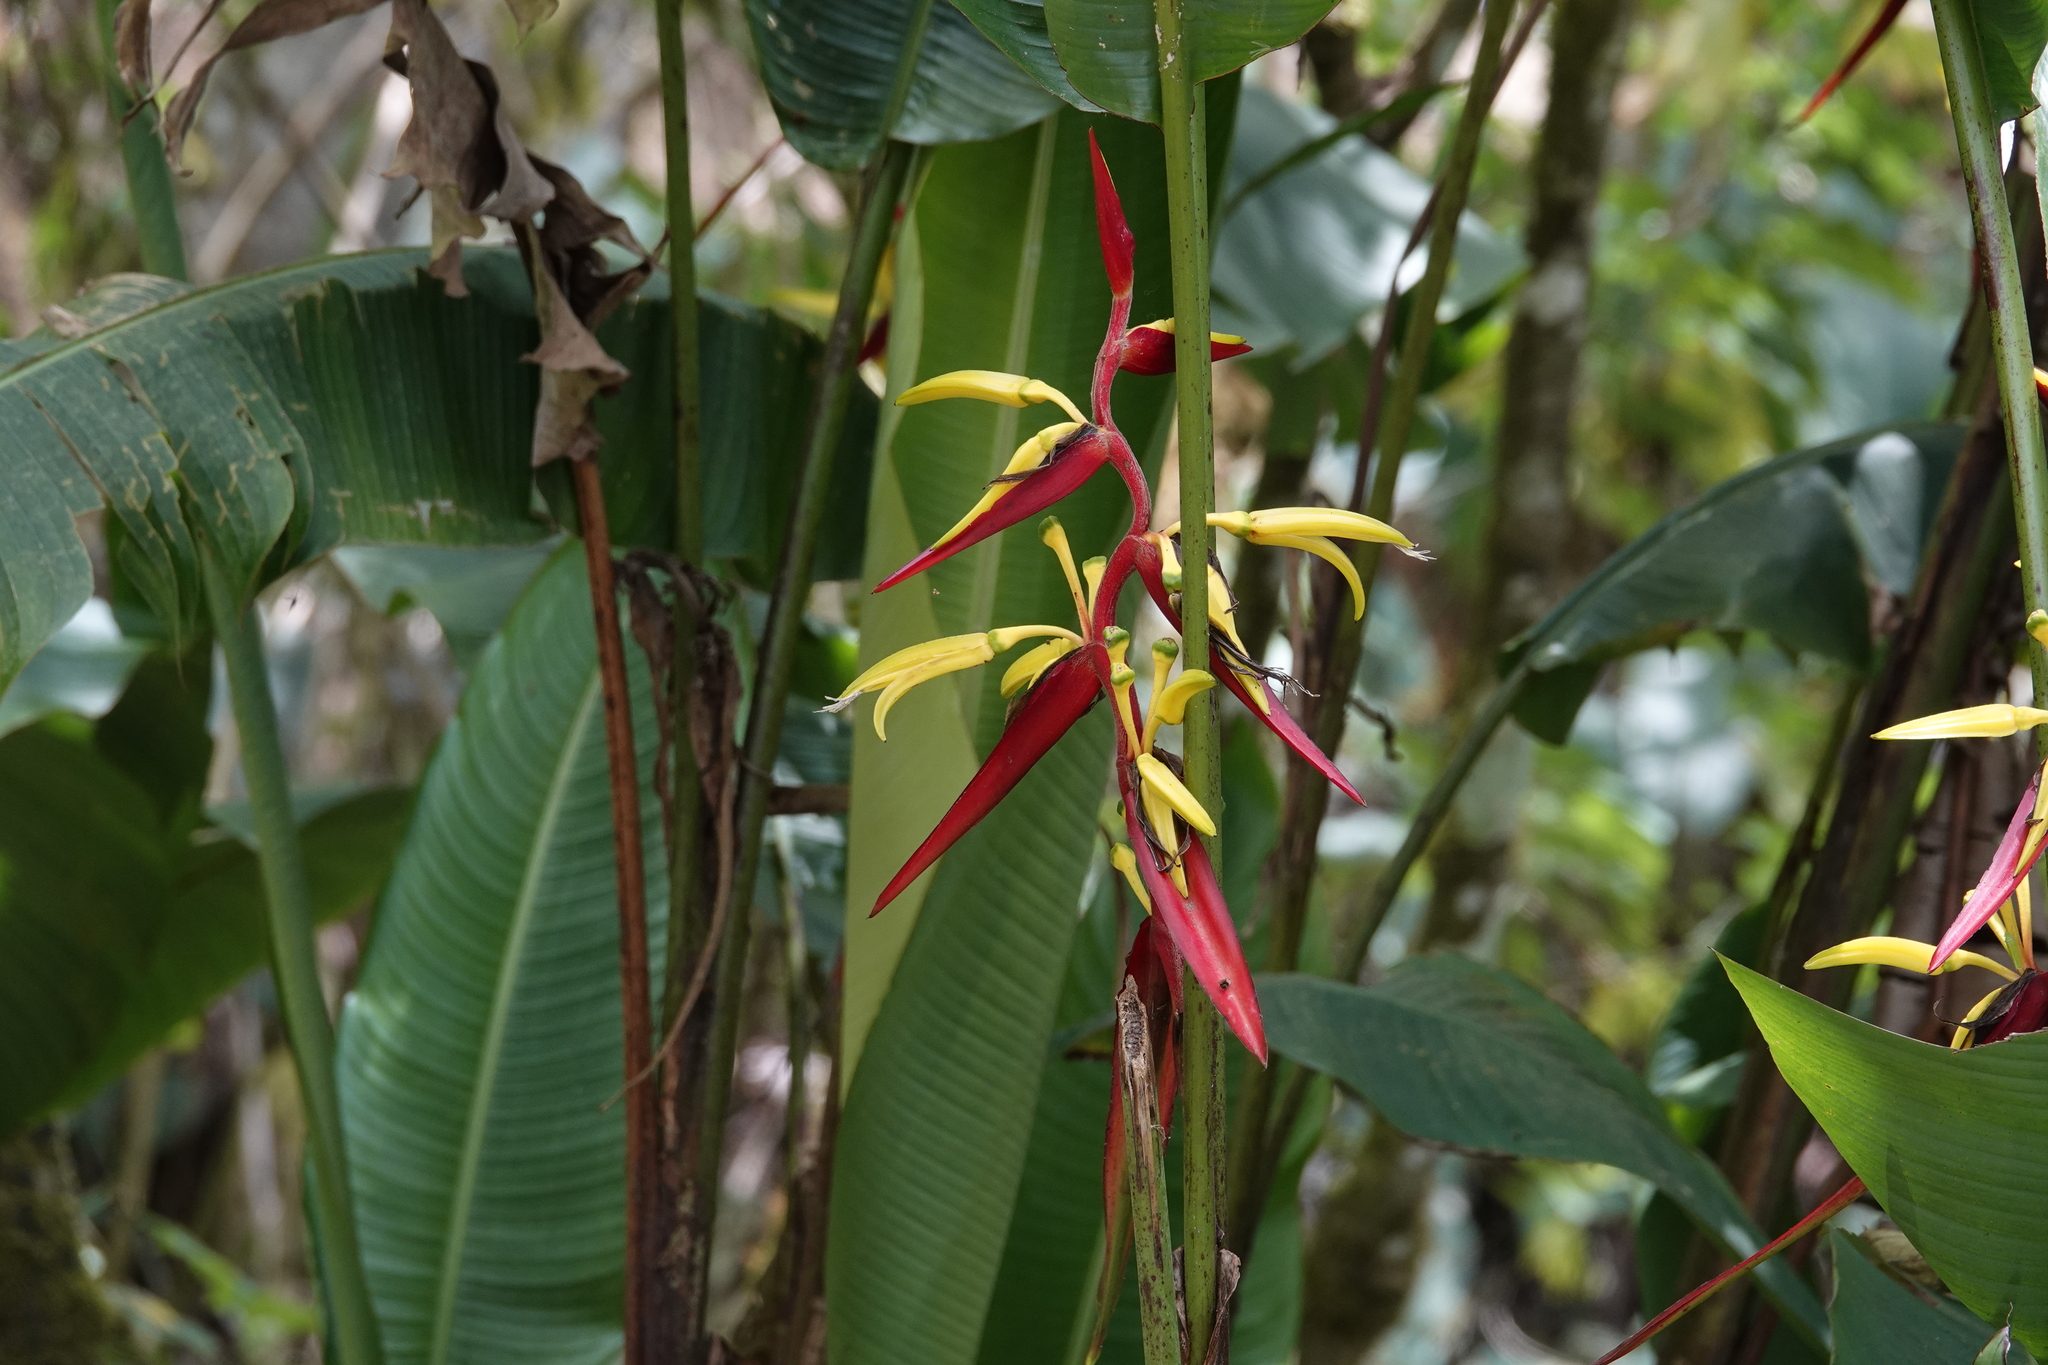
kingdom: Plantae
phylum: Tracheophyta
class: Liliopsida
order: Zingiberales
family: Heliconiaceae
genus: Heliconia
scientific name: Heliconia mincana
